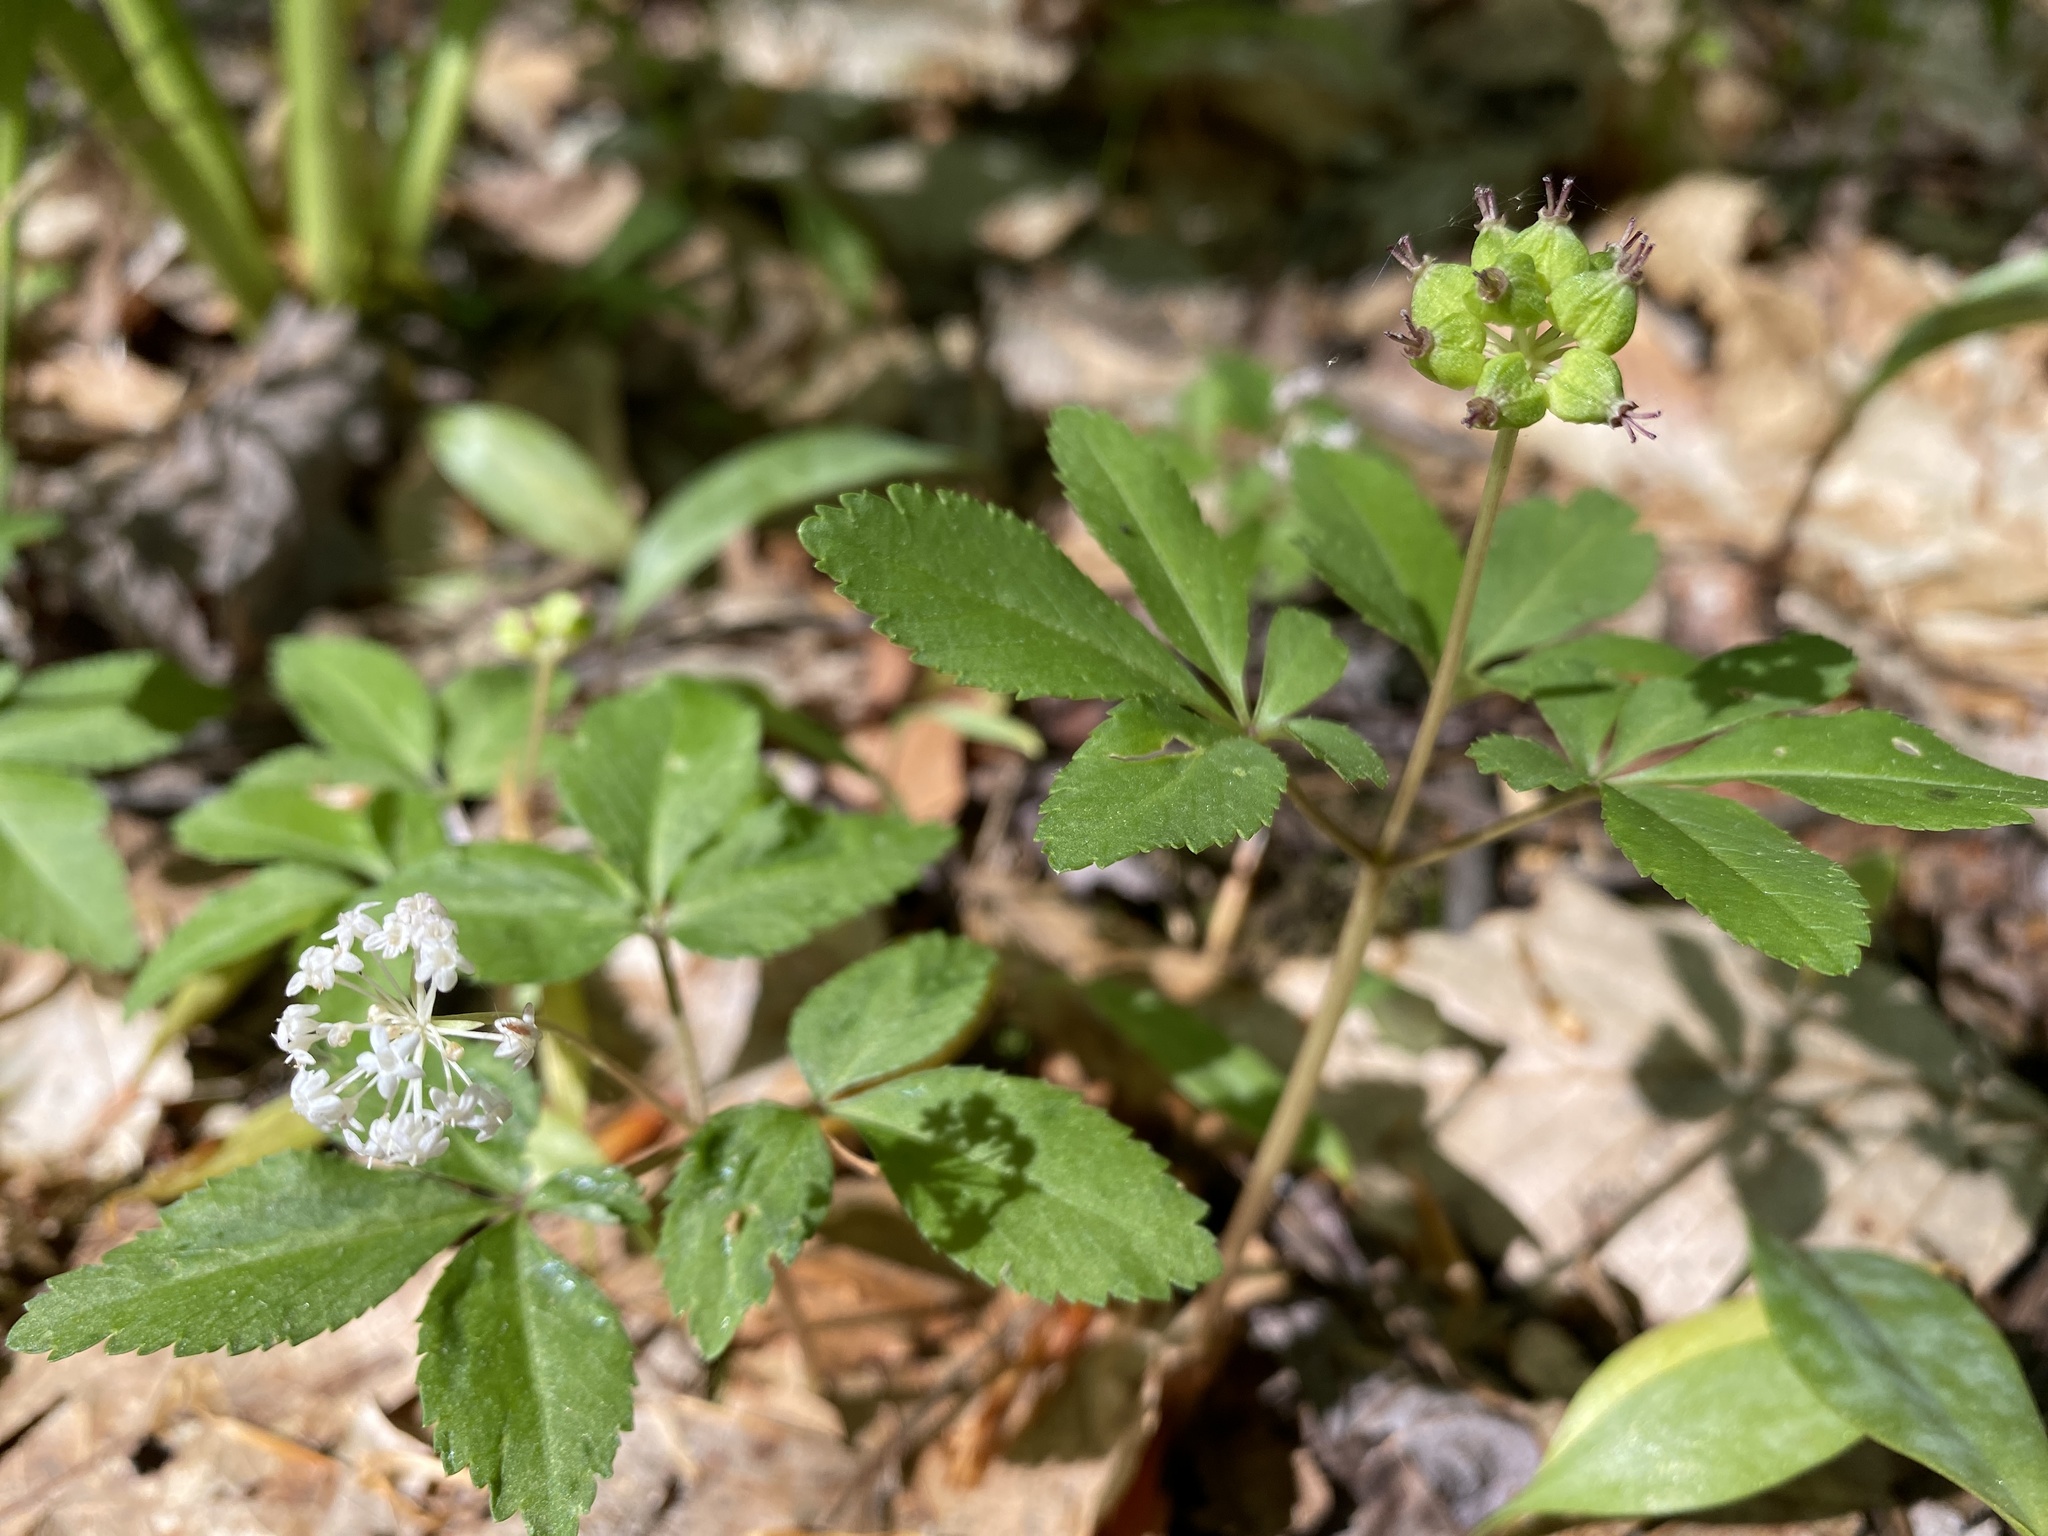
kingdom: Plantae
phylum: Tracheophyta
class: Magnoliopsida
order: Apiales
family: Araliaceae
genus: Panax
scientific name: Panax trifolius
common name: Dwarf ginseng
